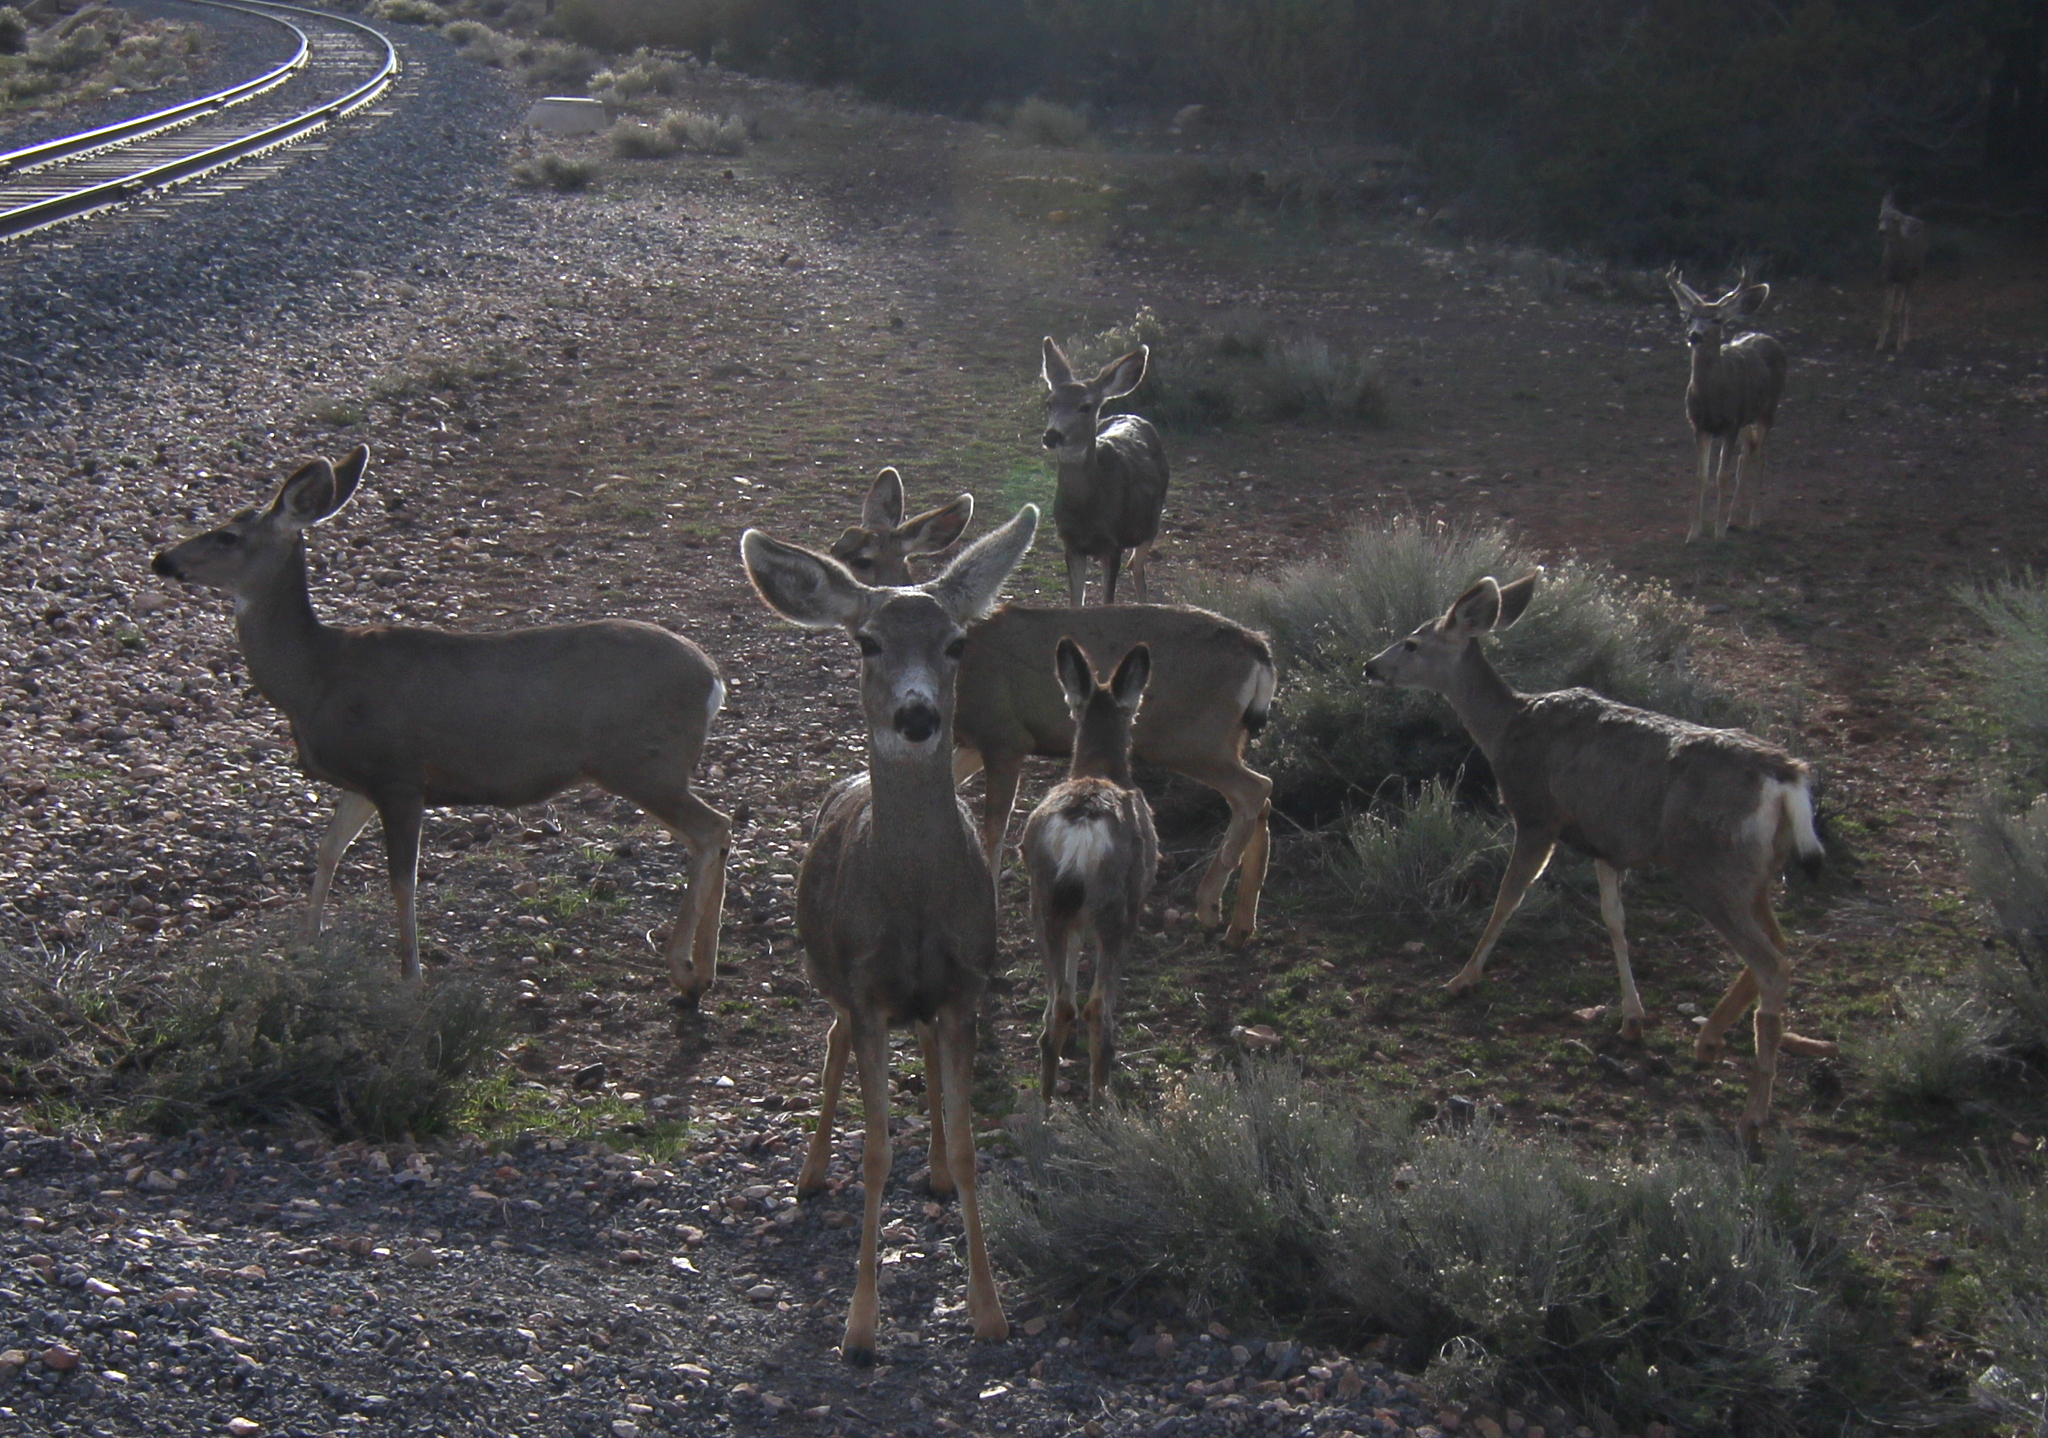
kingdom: Animalia
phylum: Chordata
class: Mammalia
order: Artiodactyla
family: Cervidae
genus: Odocoileus
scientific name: Odocoileus hemionus
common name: Mule deer
